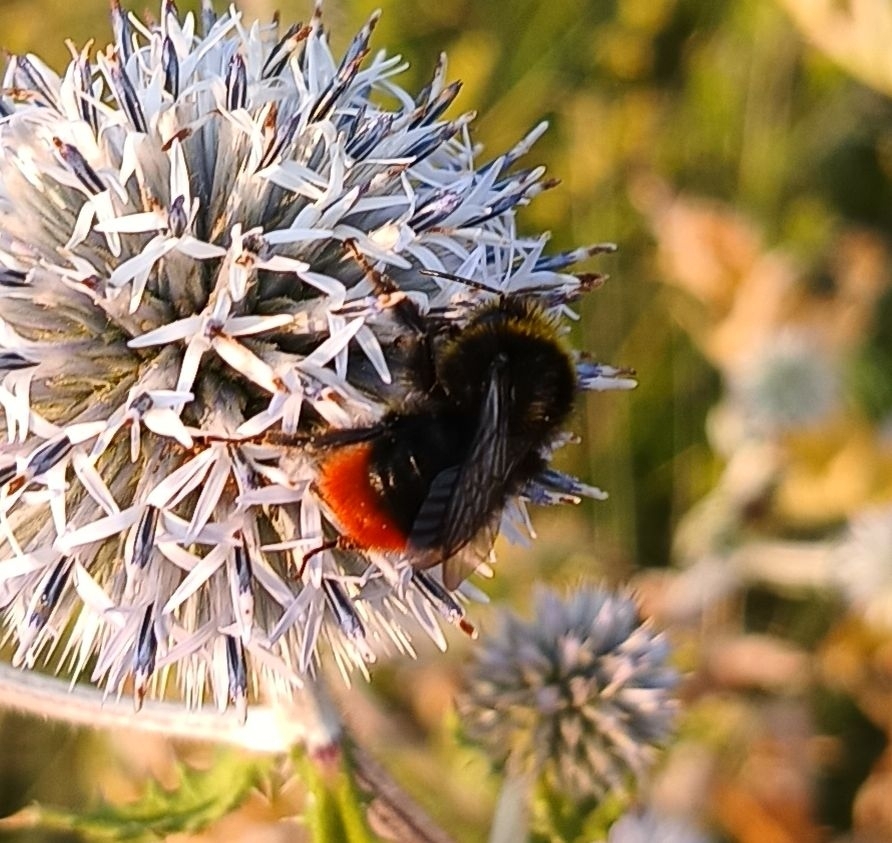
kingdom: Animalia
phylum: Arthropoda
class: Insecta
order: Hymenoptera
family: Apidae
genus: Bombus
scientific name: Bombus lapidarius
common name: Large red-tailed humble-bee
